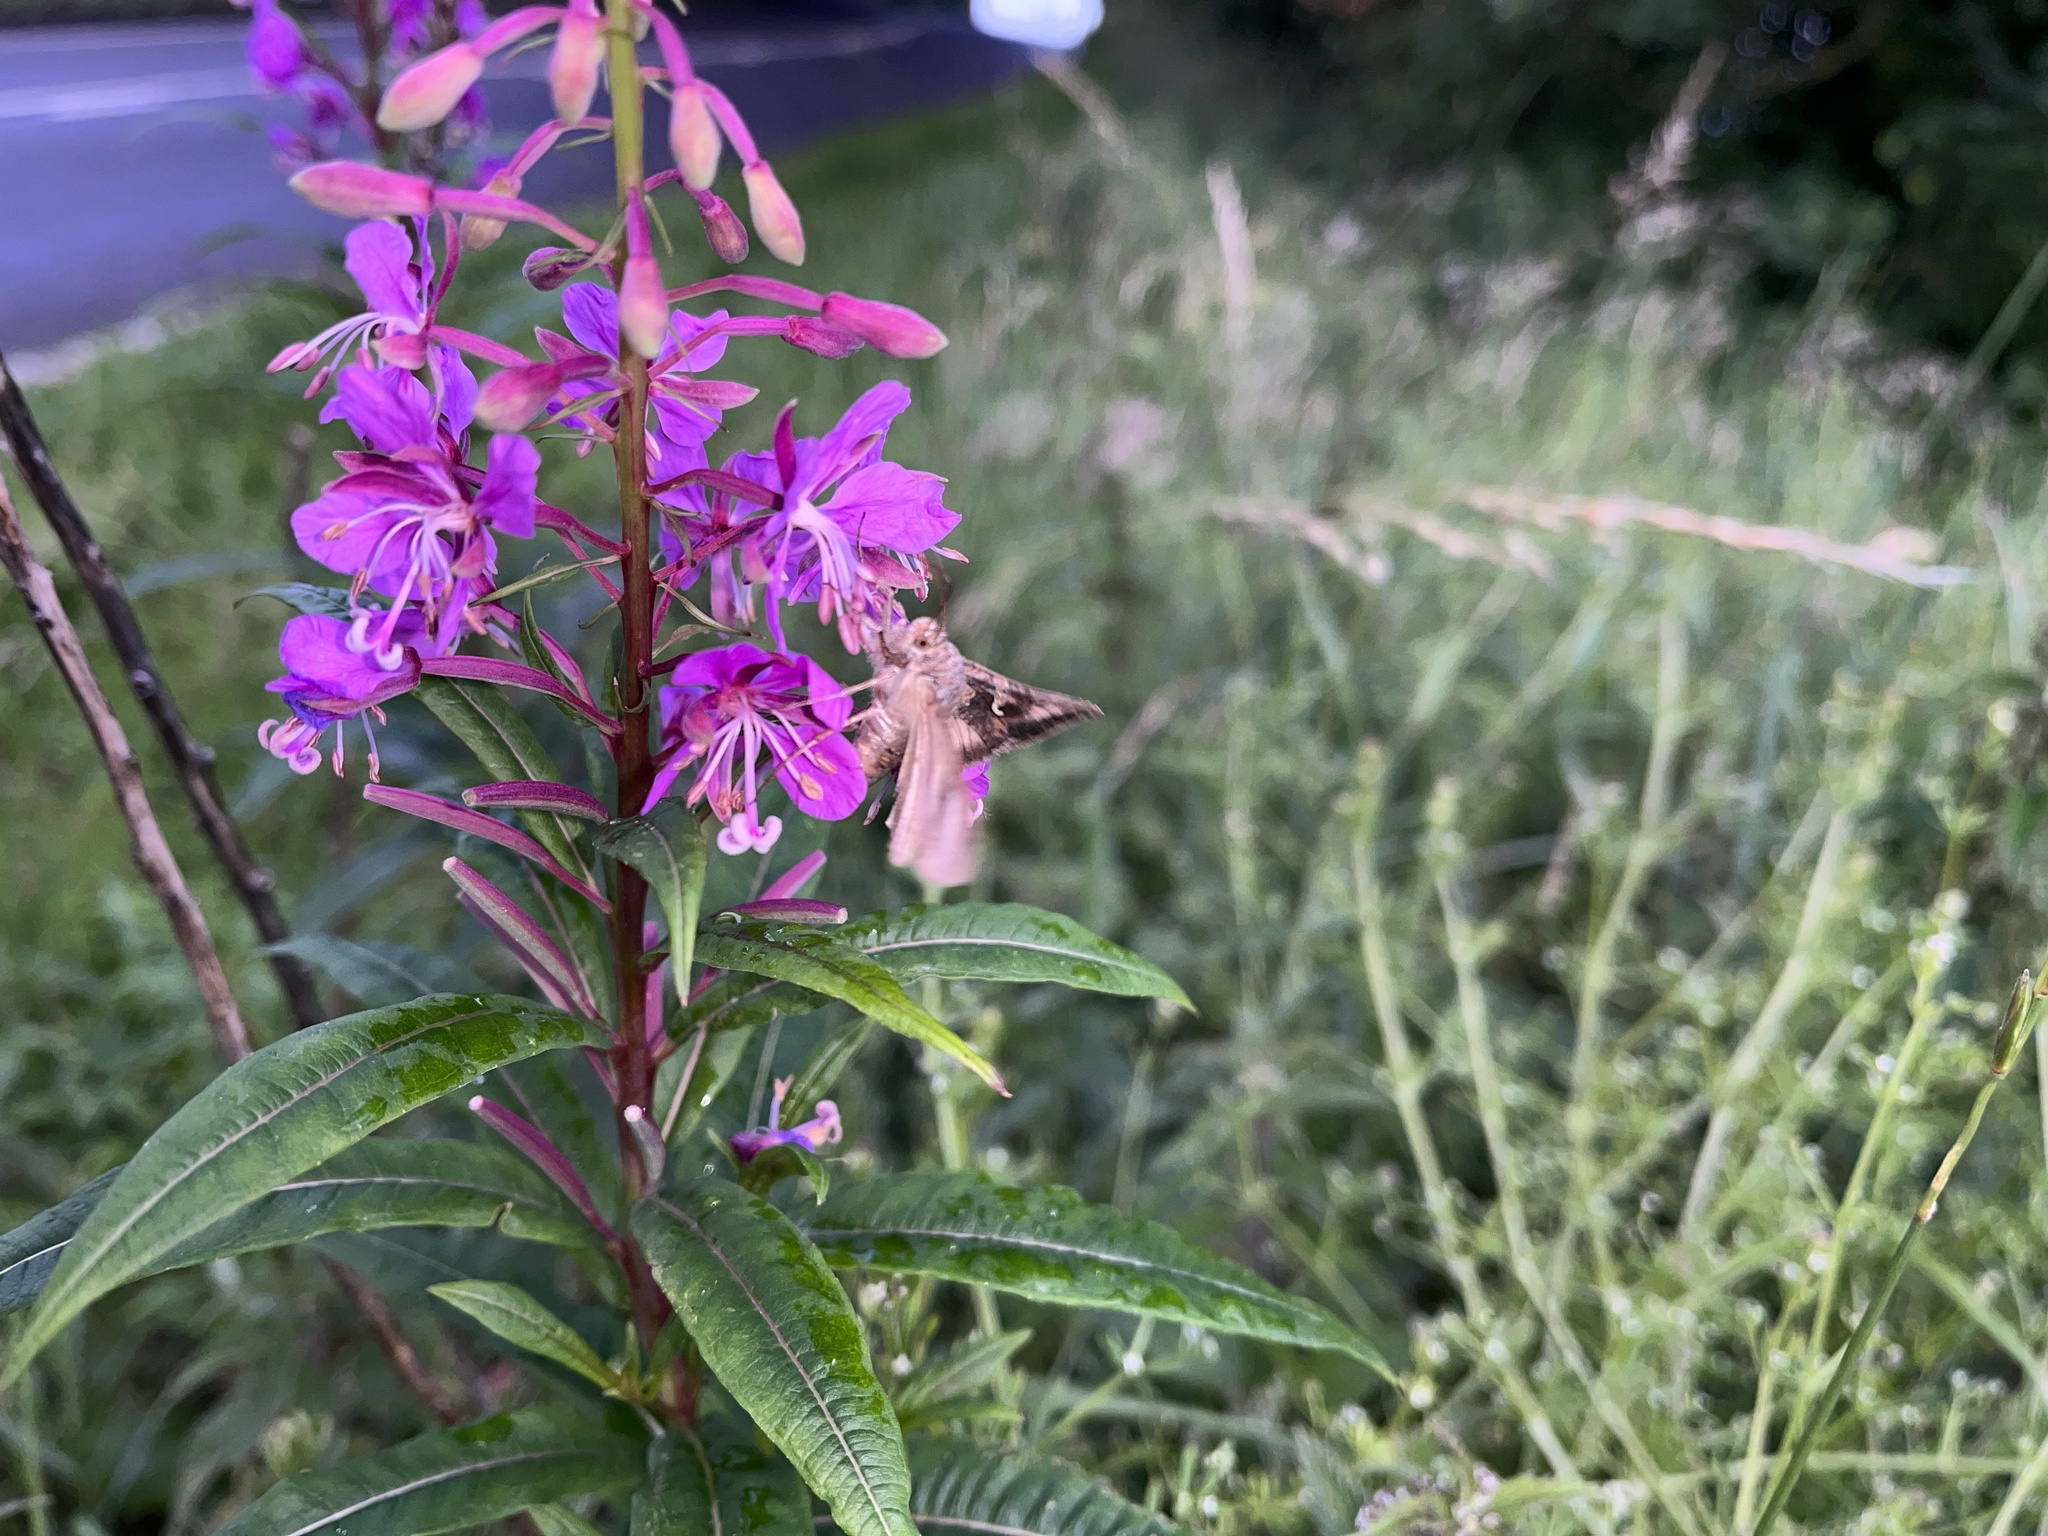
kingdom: Animalia
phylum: Arthropoda
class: Insecta
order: Lepidoptera
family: Noctuidae
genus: Autographa
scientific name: Autographa gamma
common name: Silver y
